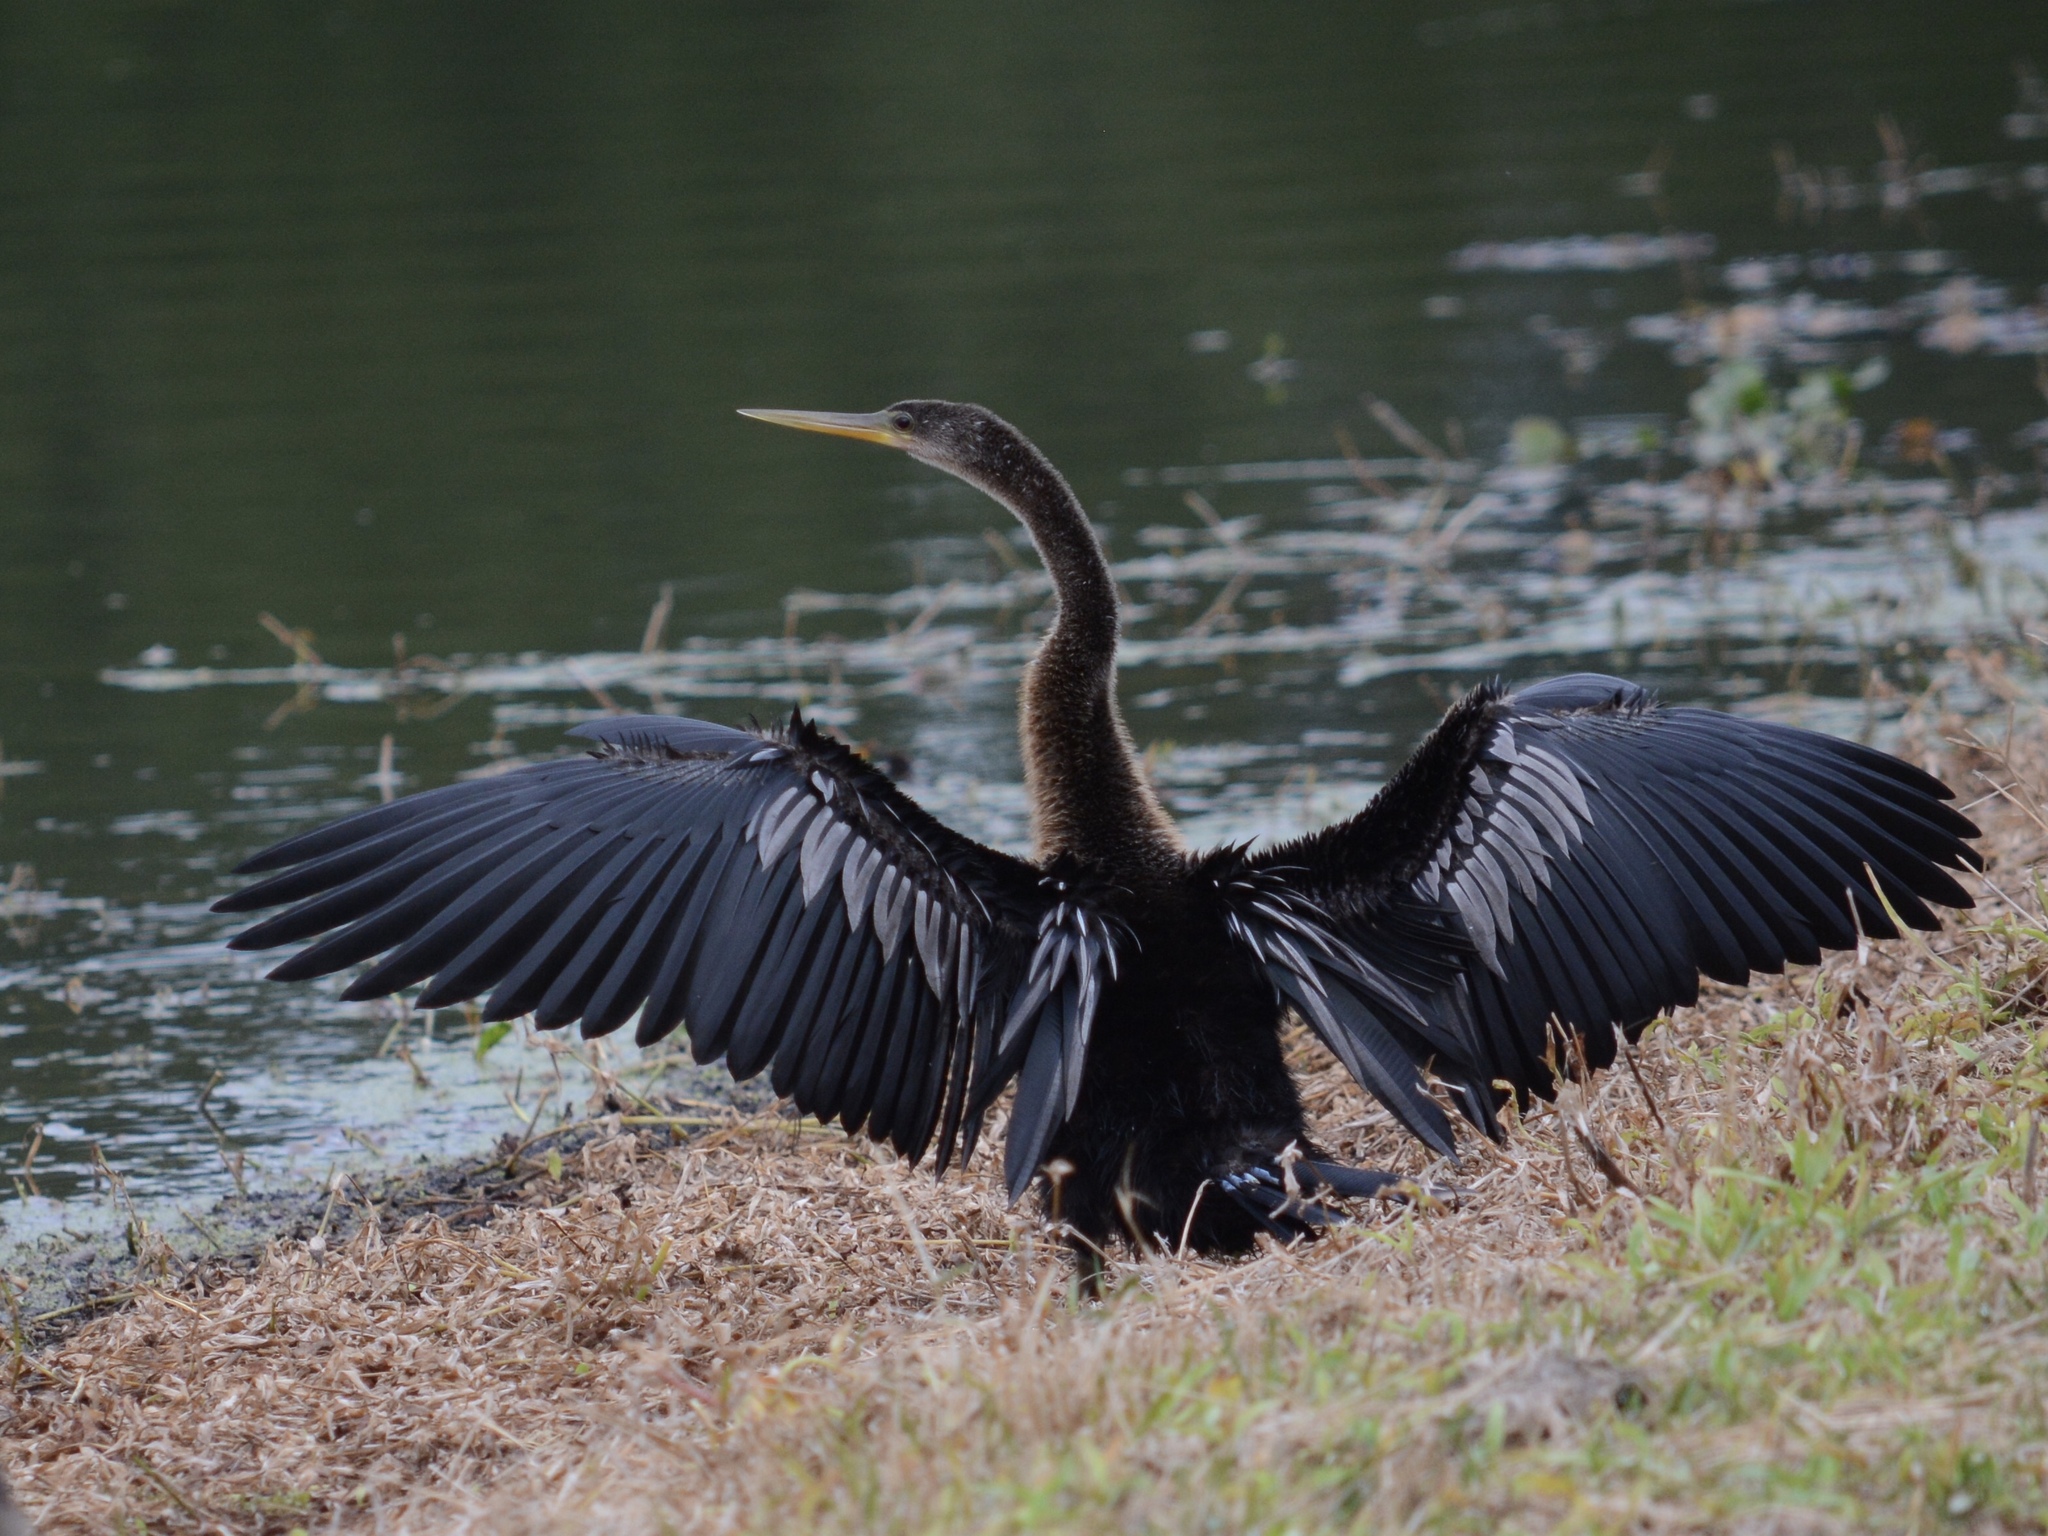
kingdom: Animalia
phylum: Chordata
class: Aves
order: Suliformes
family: Anhingidae
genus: Anhinga
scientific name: Anhinga anhinga
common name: Anhinga
